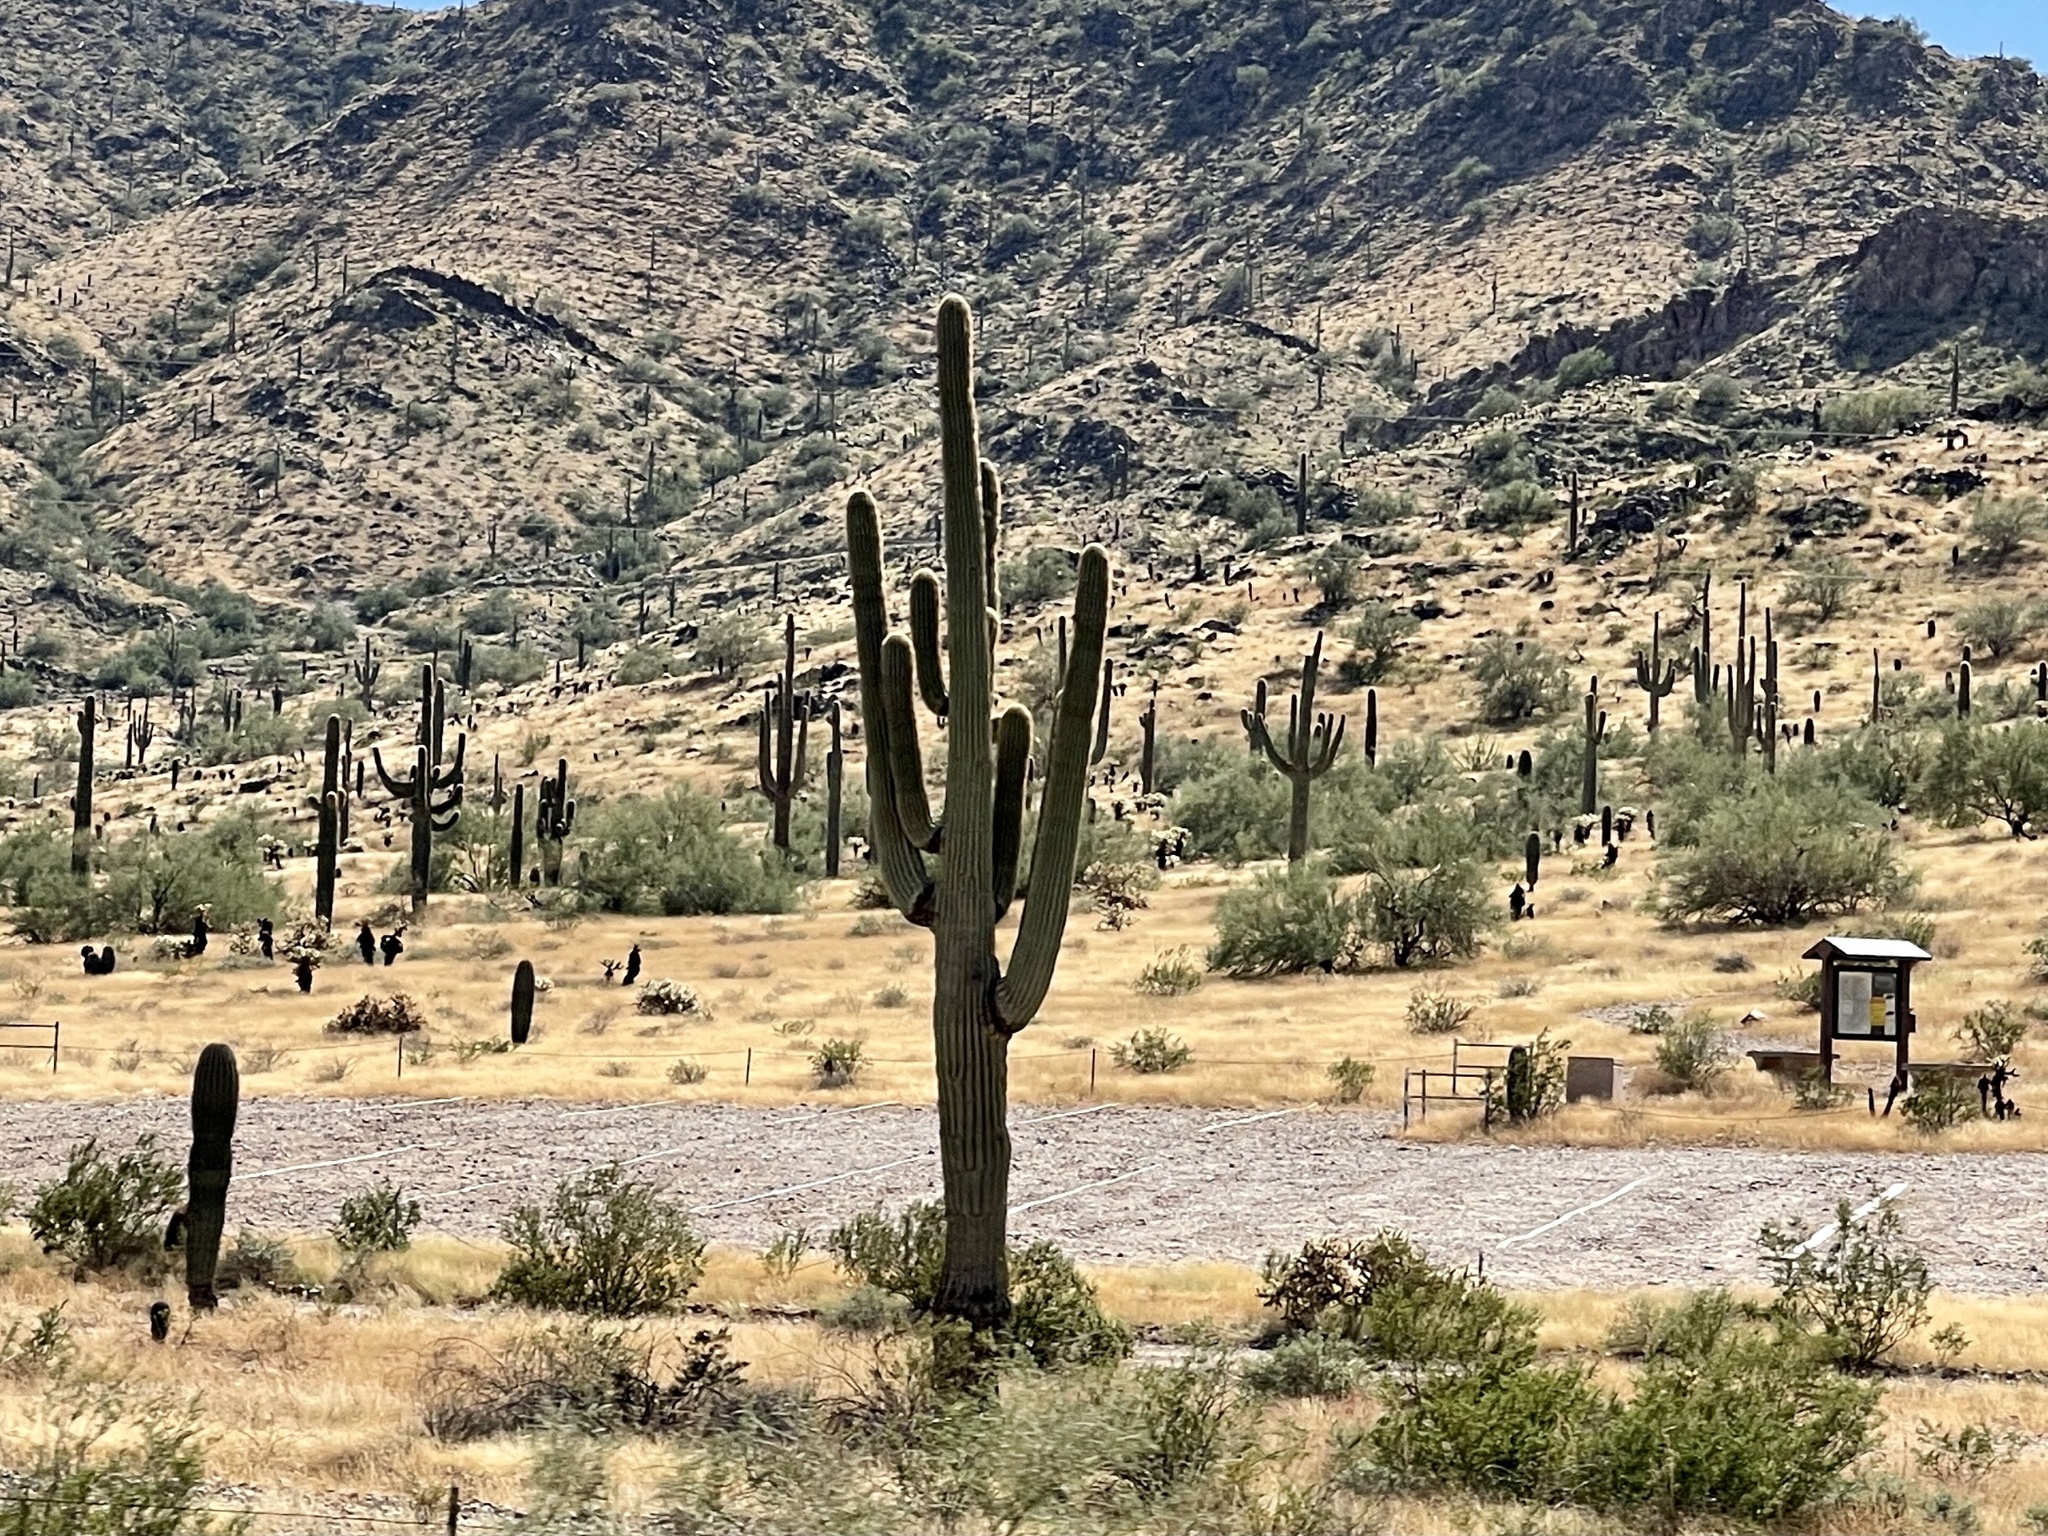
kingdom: Plantae
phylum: Tracheophyta
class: Magnoliopsida
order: Caryophyllales
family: Cactaceae
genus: Carnegiea
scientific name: Carnegiea gigantea
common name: Saguaro
